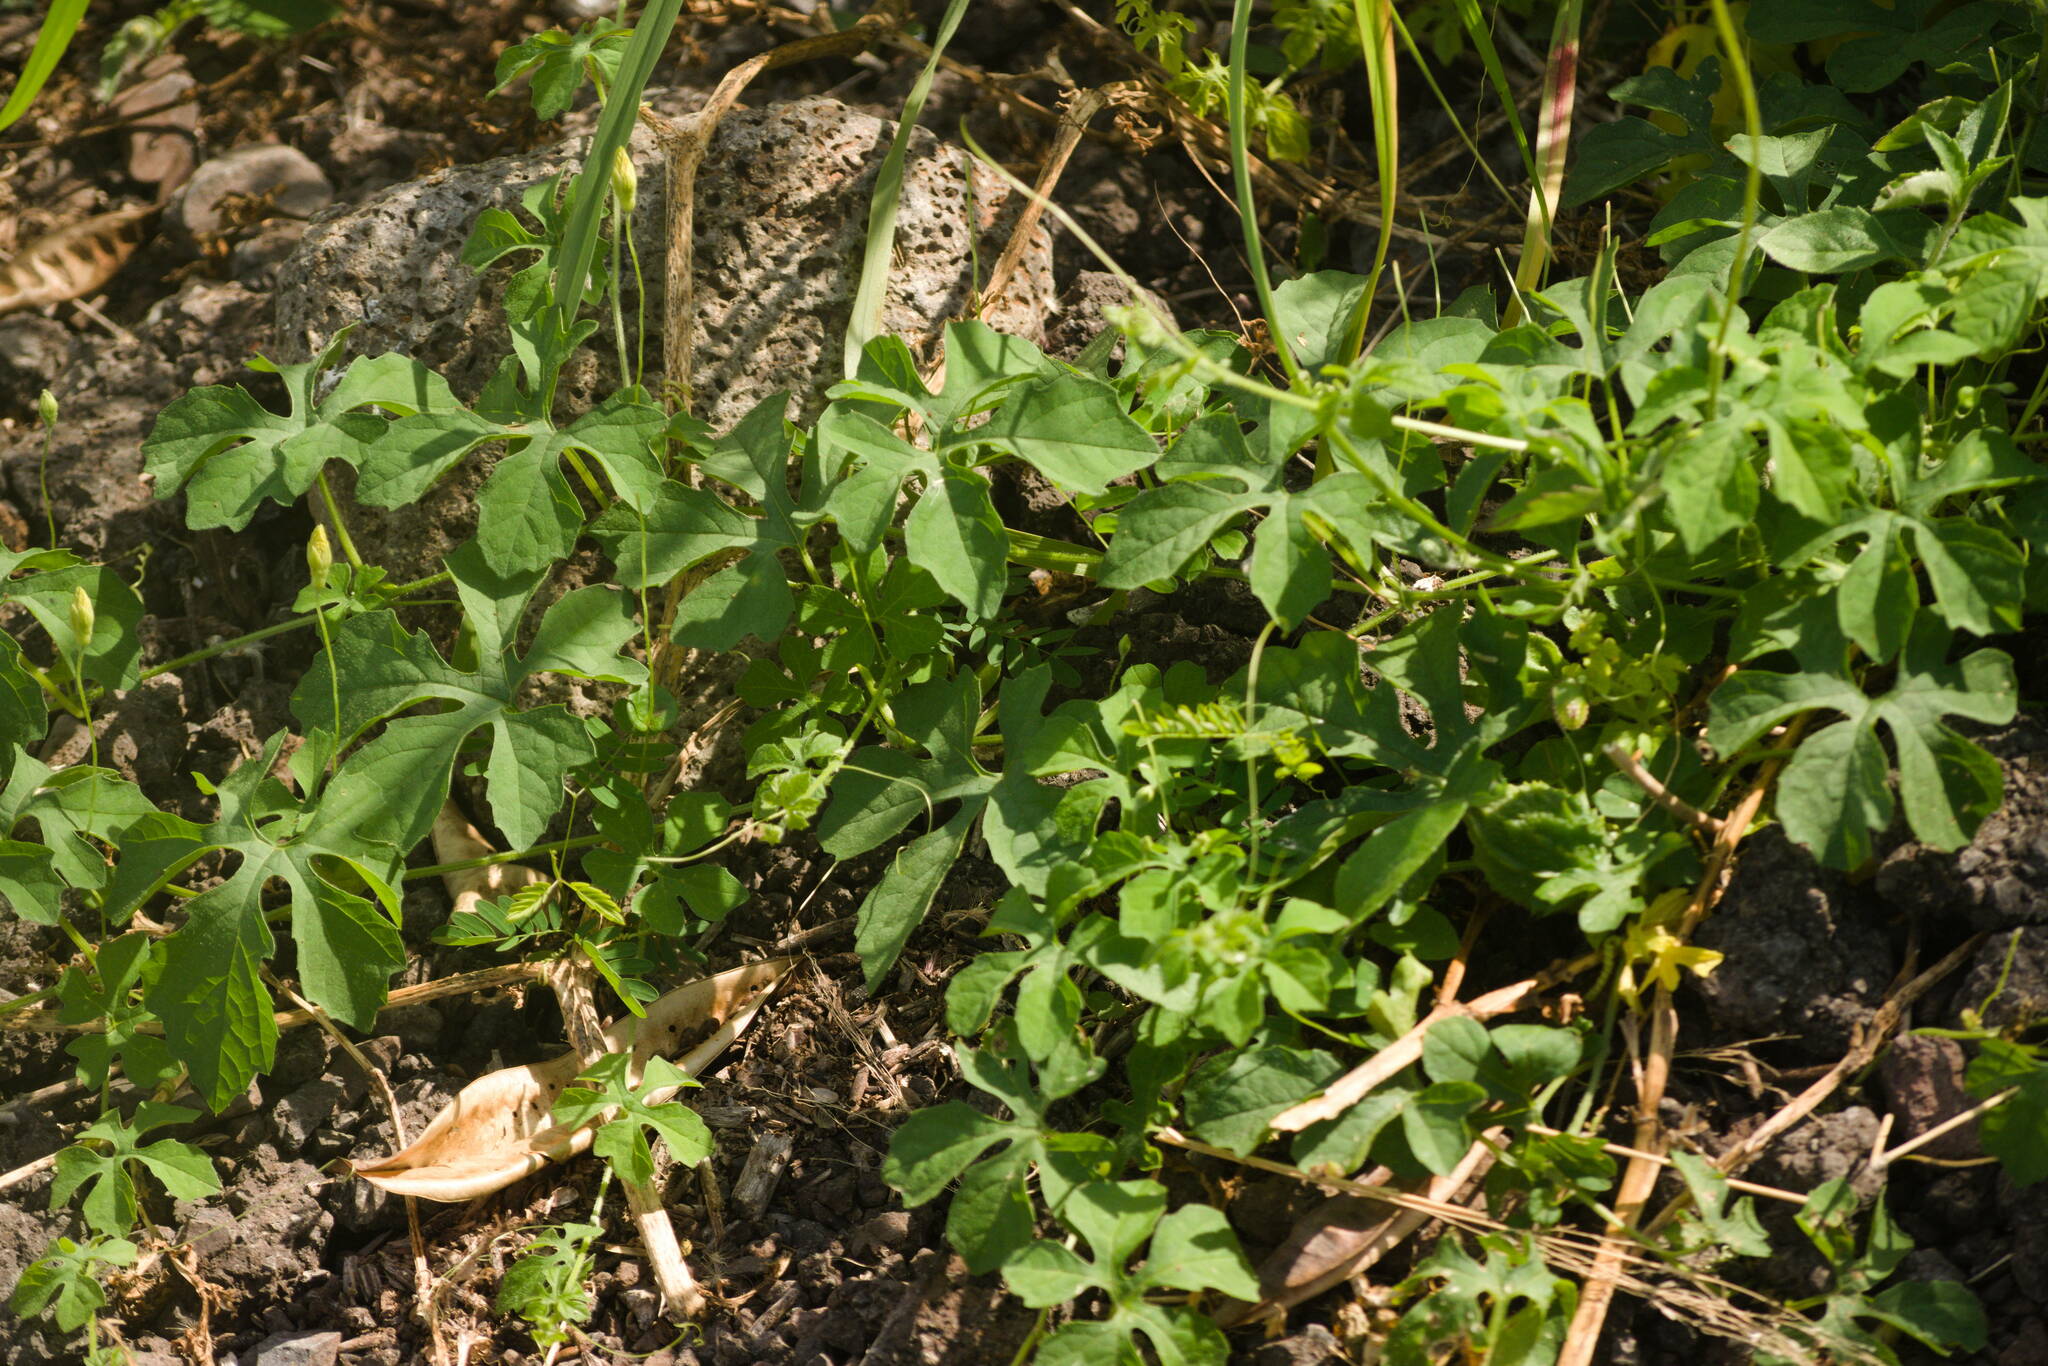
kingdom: Plantae
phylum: Tracheophyta
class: Magnoliopsida
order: Cucurbitales
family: Cucurbitaceae
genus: Momordica
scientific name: Momordica charantia
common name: Balsampear
